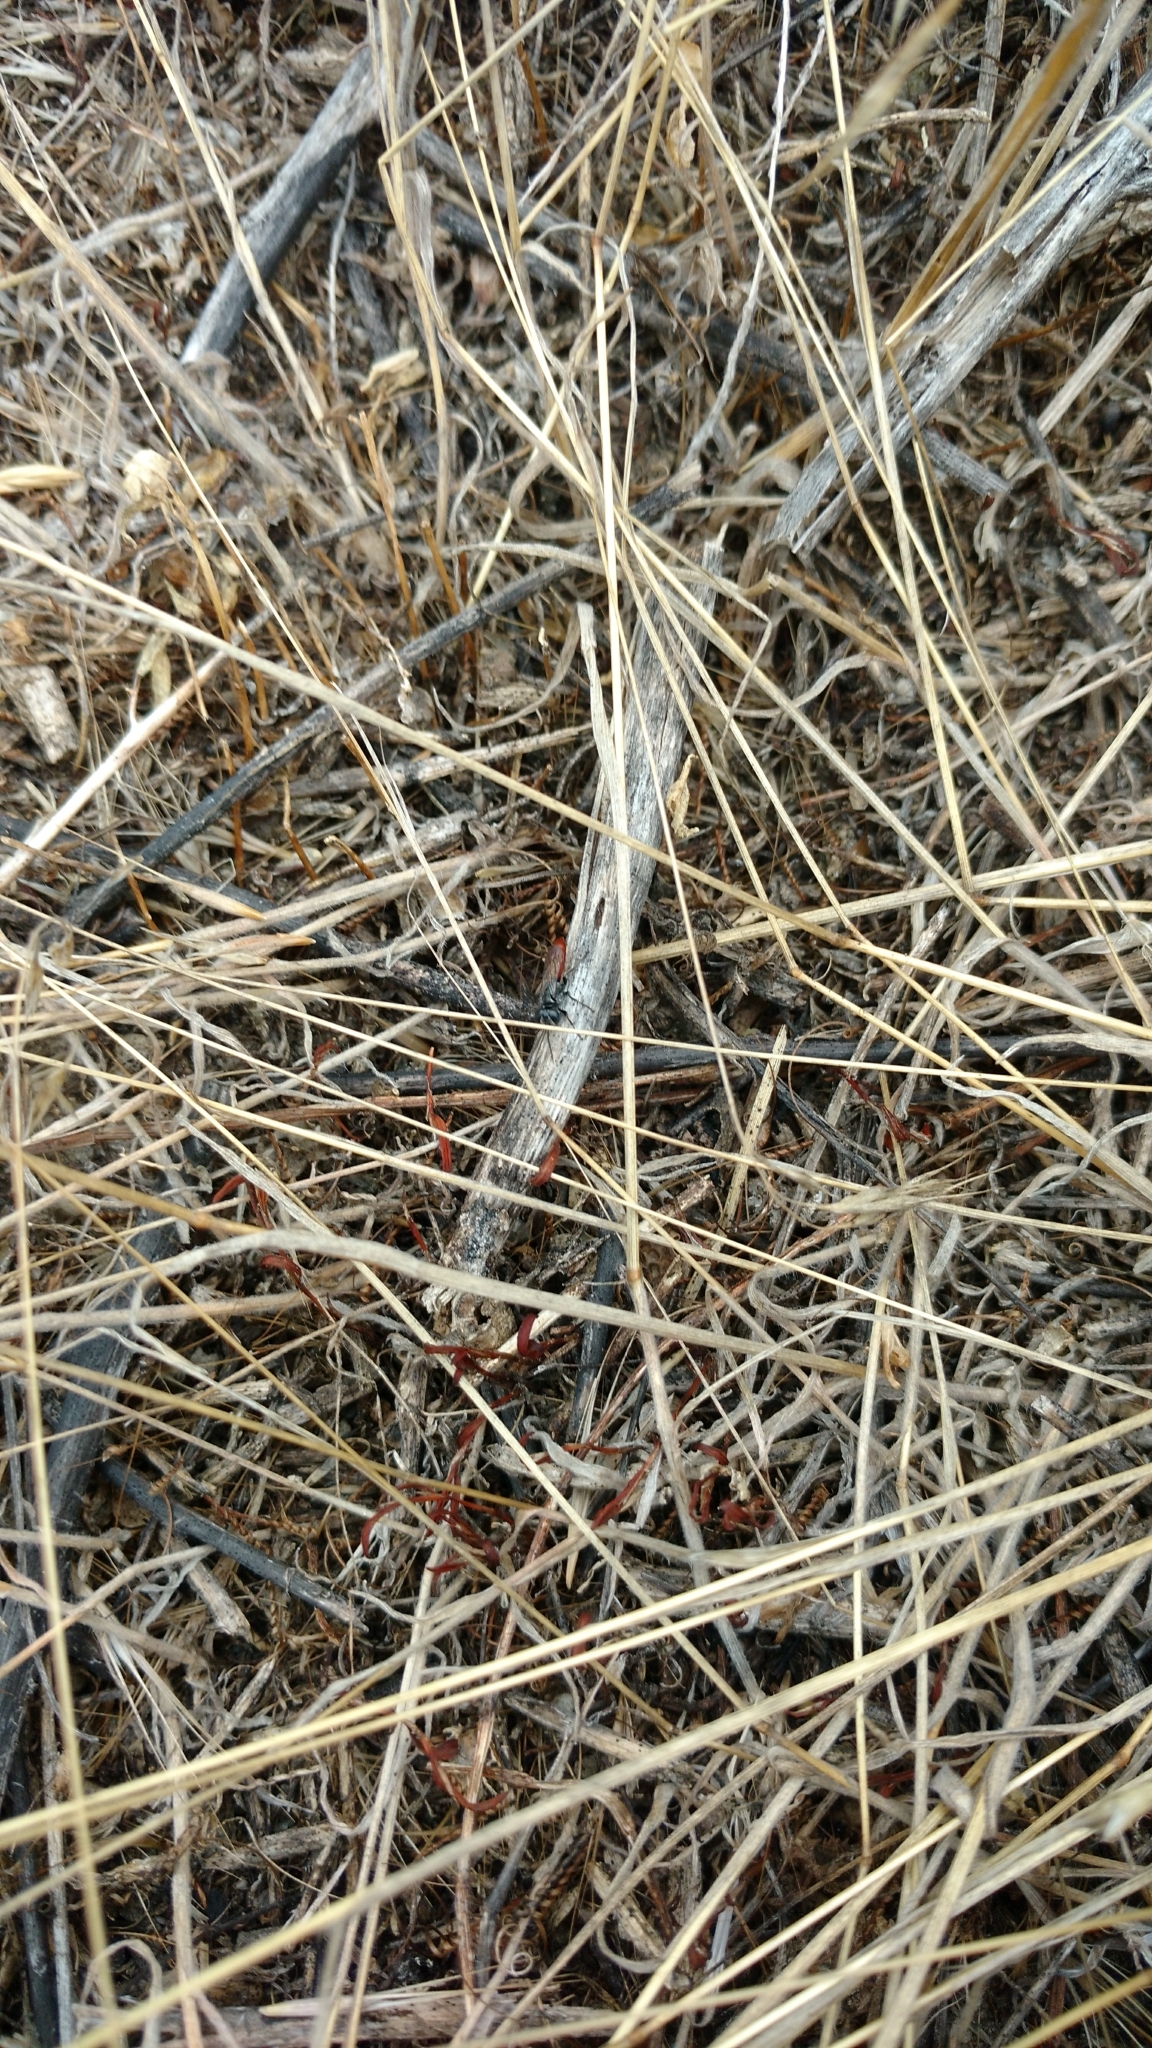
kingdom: Animalia
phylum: Arthropoda
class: Insecta
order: Hemiptera
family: Pyrrhocoridae
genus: Pyrrhocoris
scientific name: Pyrrhocoris apterus
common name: Firebug
